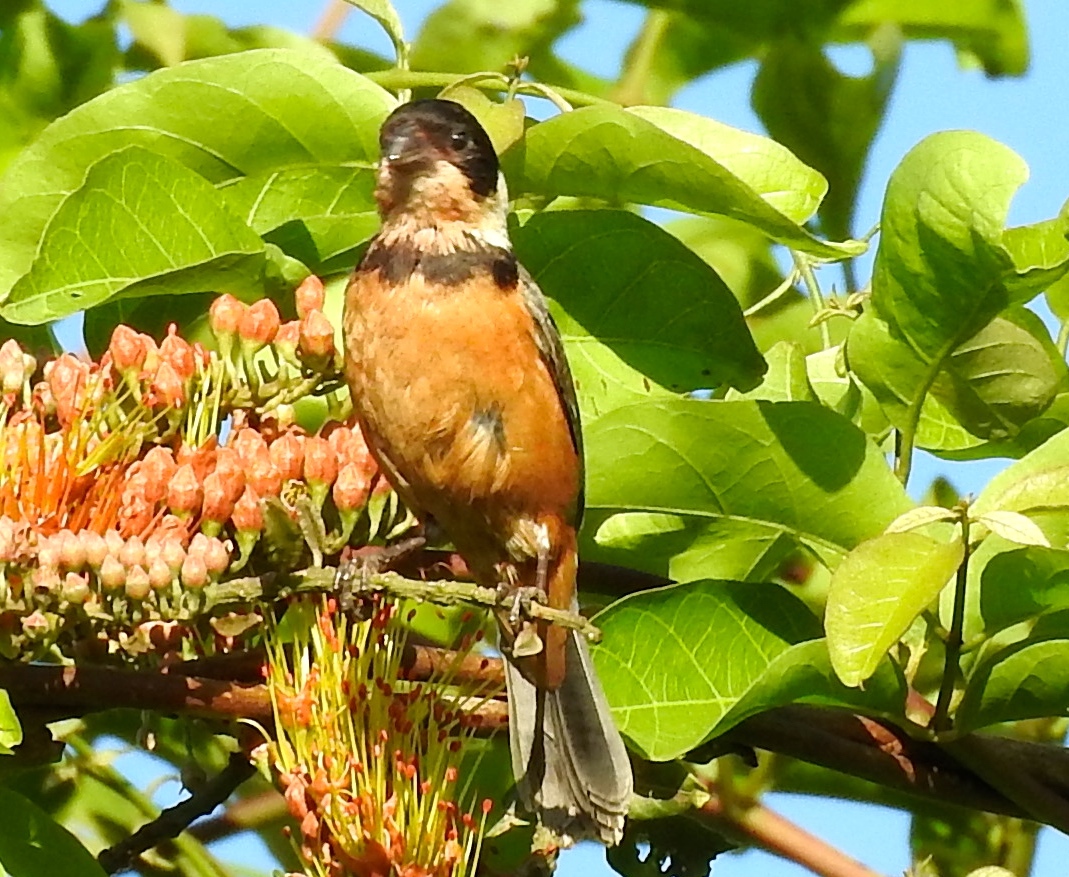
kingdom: Animalia
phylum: Chordata
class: Aves
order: Passeriformes
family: Thraupidae
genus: Sporophila
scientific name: Sporophila torqueola
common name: White-collared seedeater
